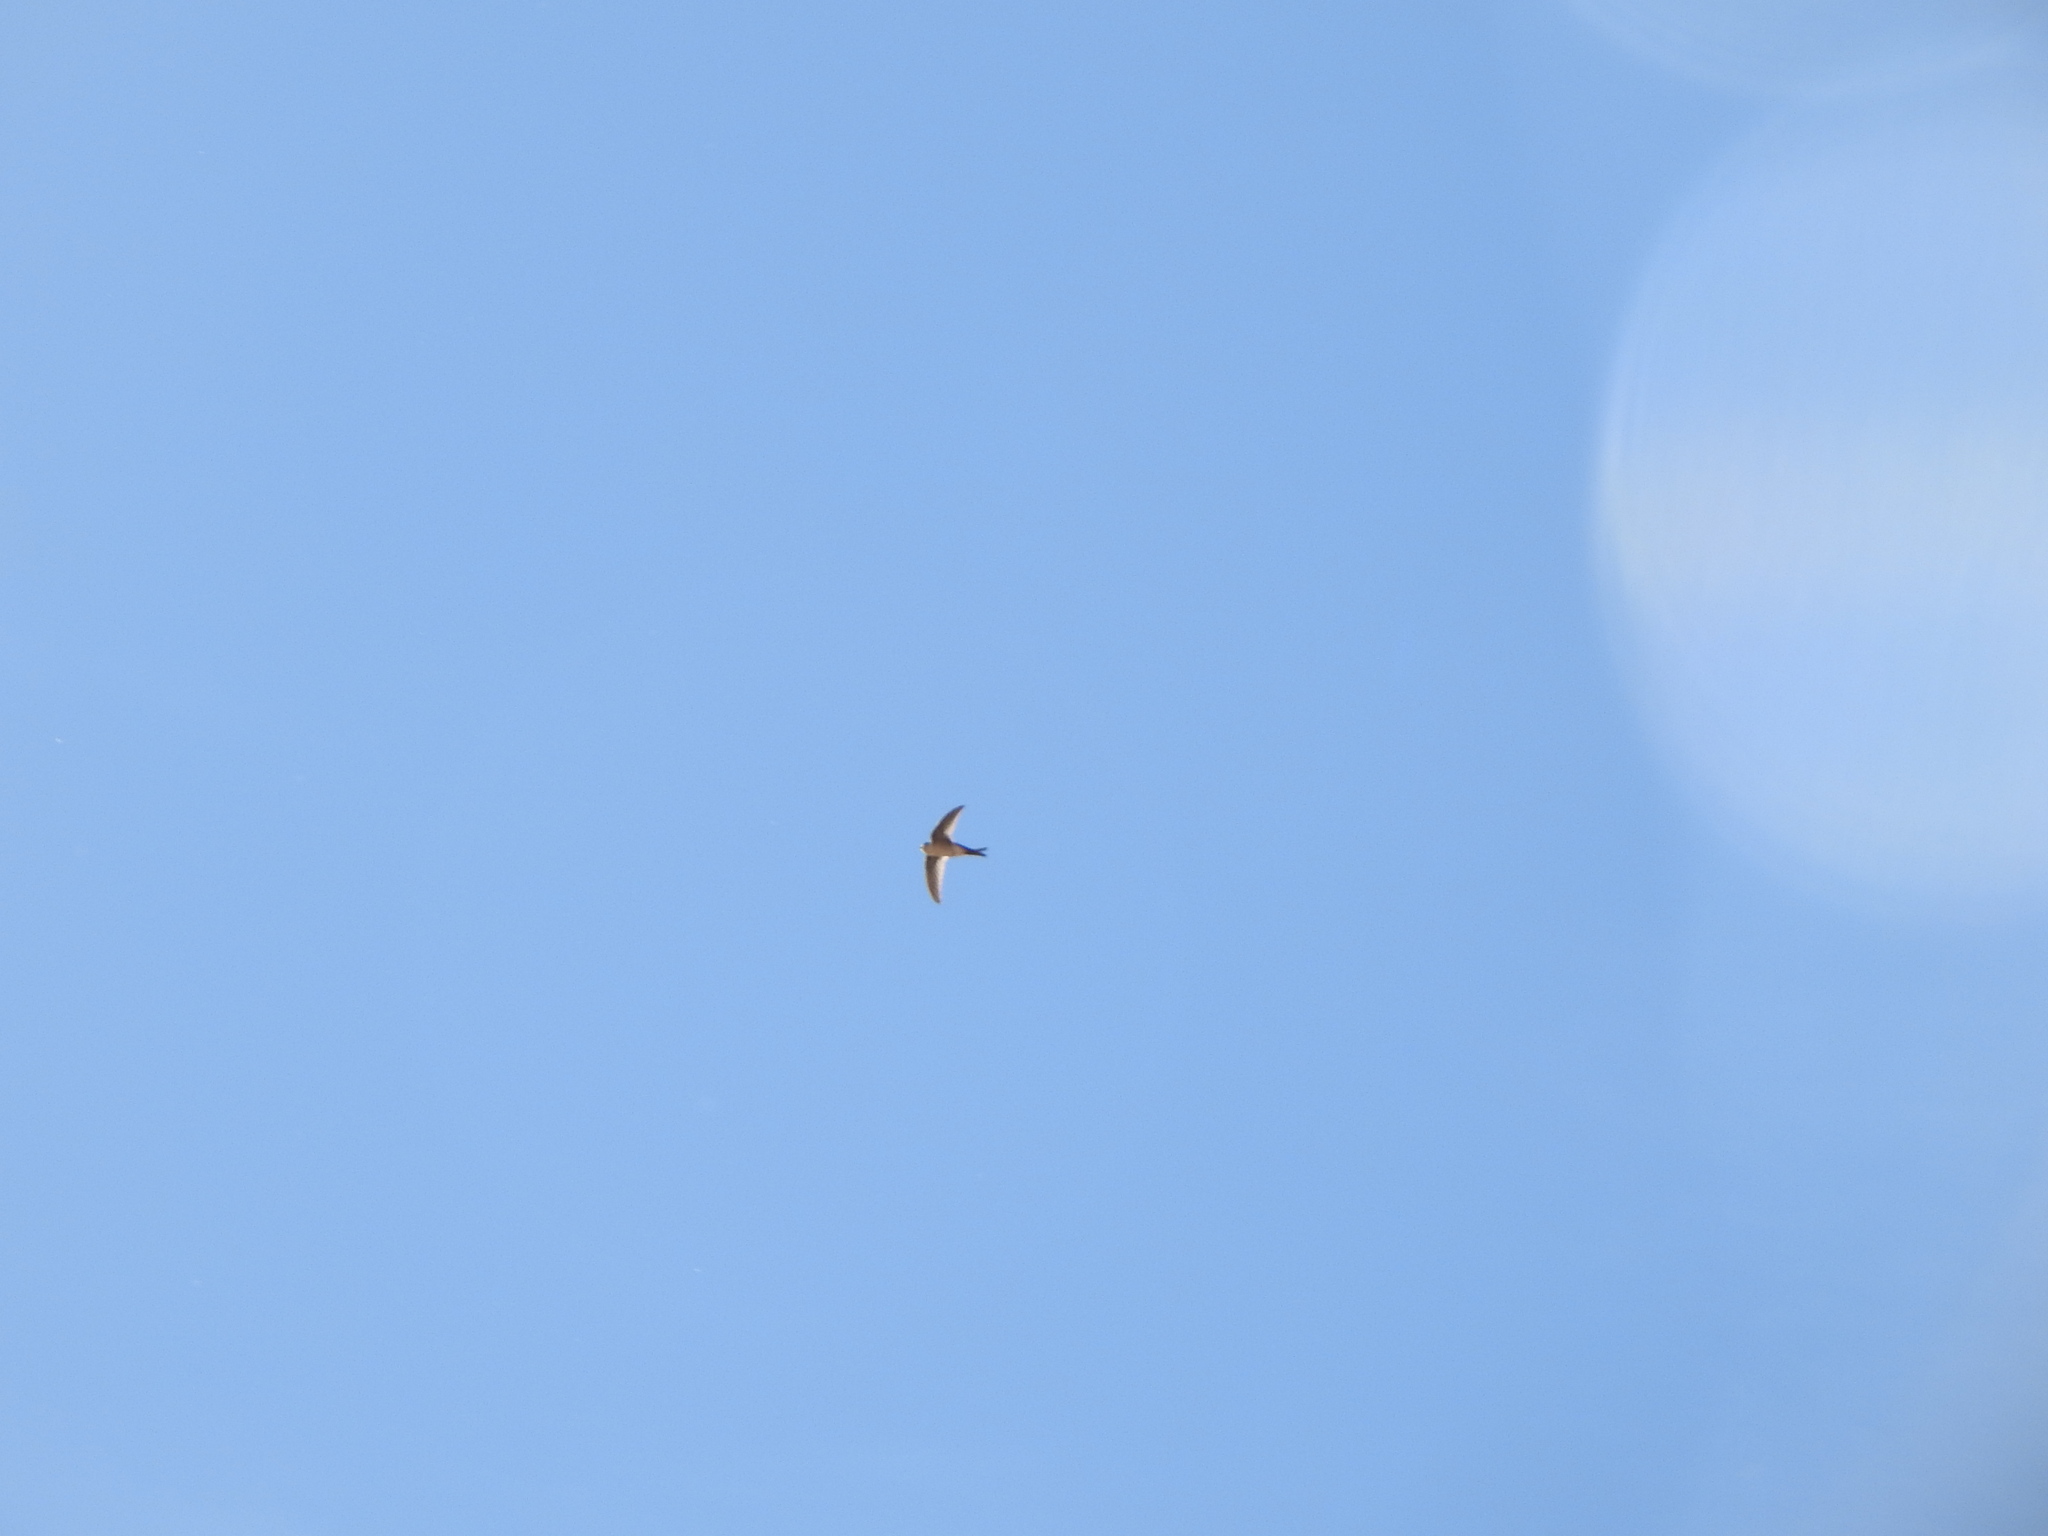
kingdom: Animalia
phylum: Chordata
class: Aves
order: Apodiformes
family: Apodidae
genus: Aeronautes
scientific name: Aeronautes andecolus
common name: Andean swift
